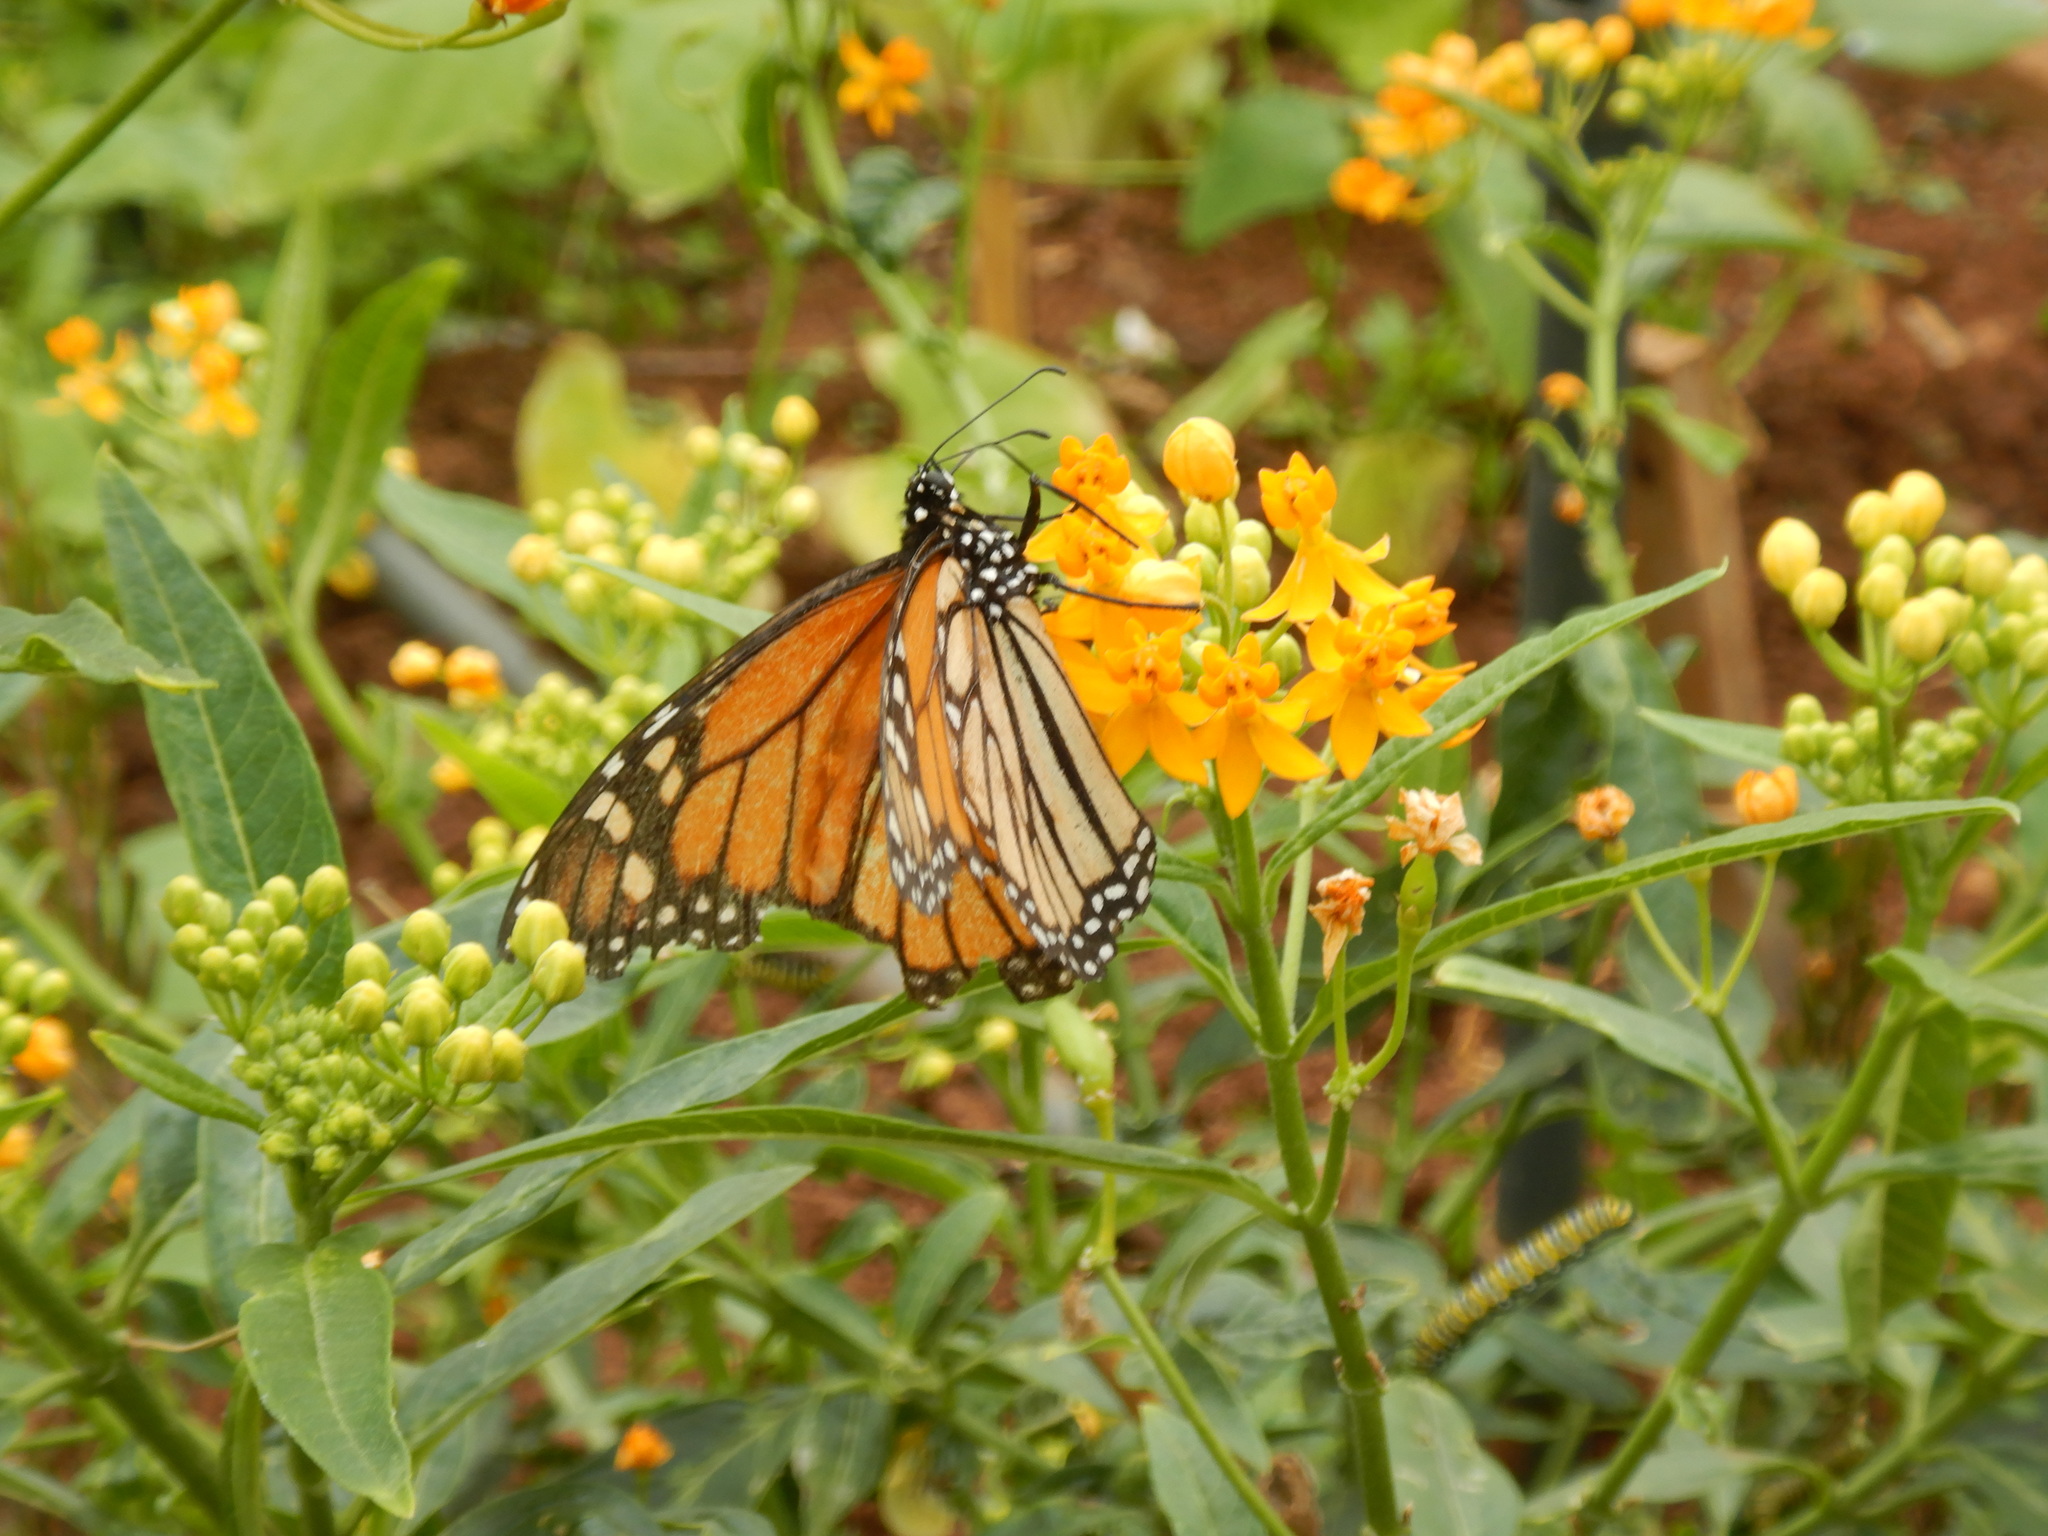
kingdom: Animalia
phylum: Arthropoda
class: Insecta
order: Lepidoptera
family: Nymphalidae
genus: Danaus
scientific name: Danaus plexippus
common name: Monarch
